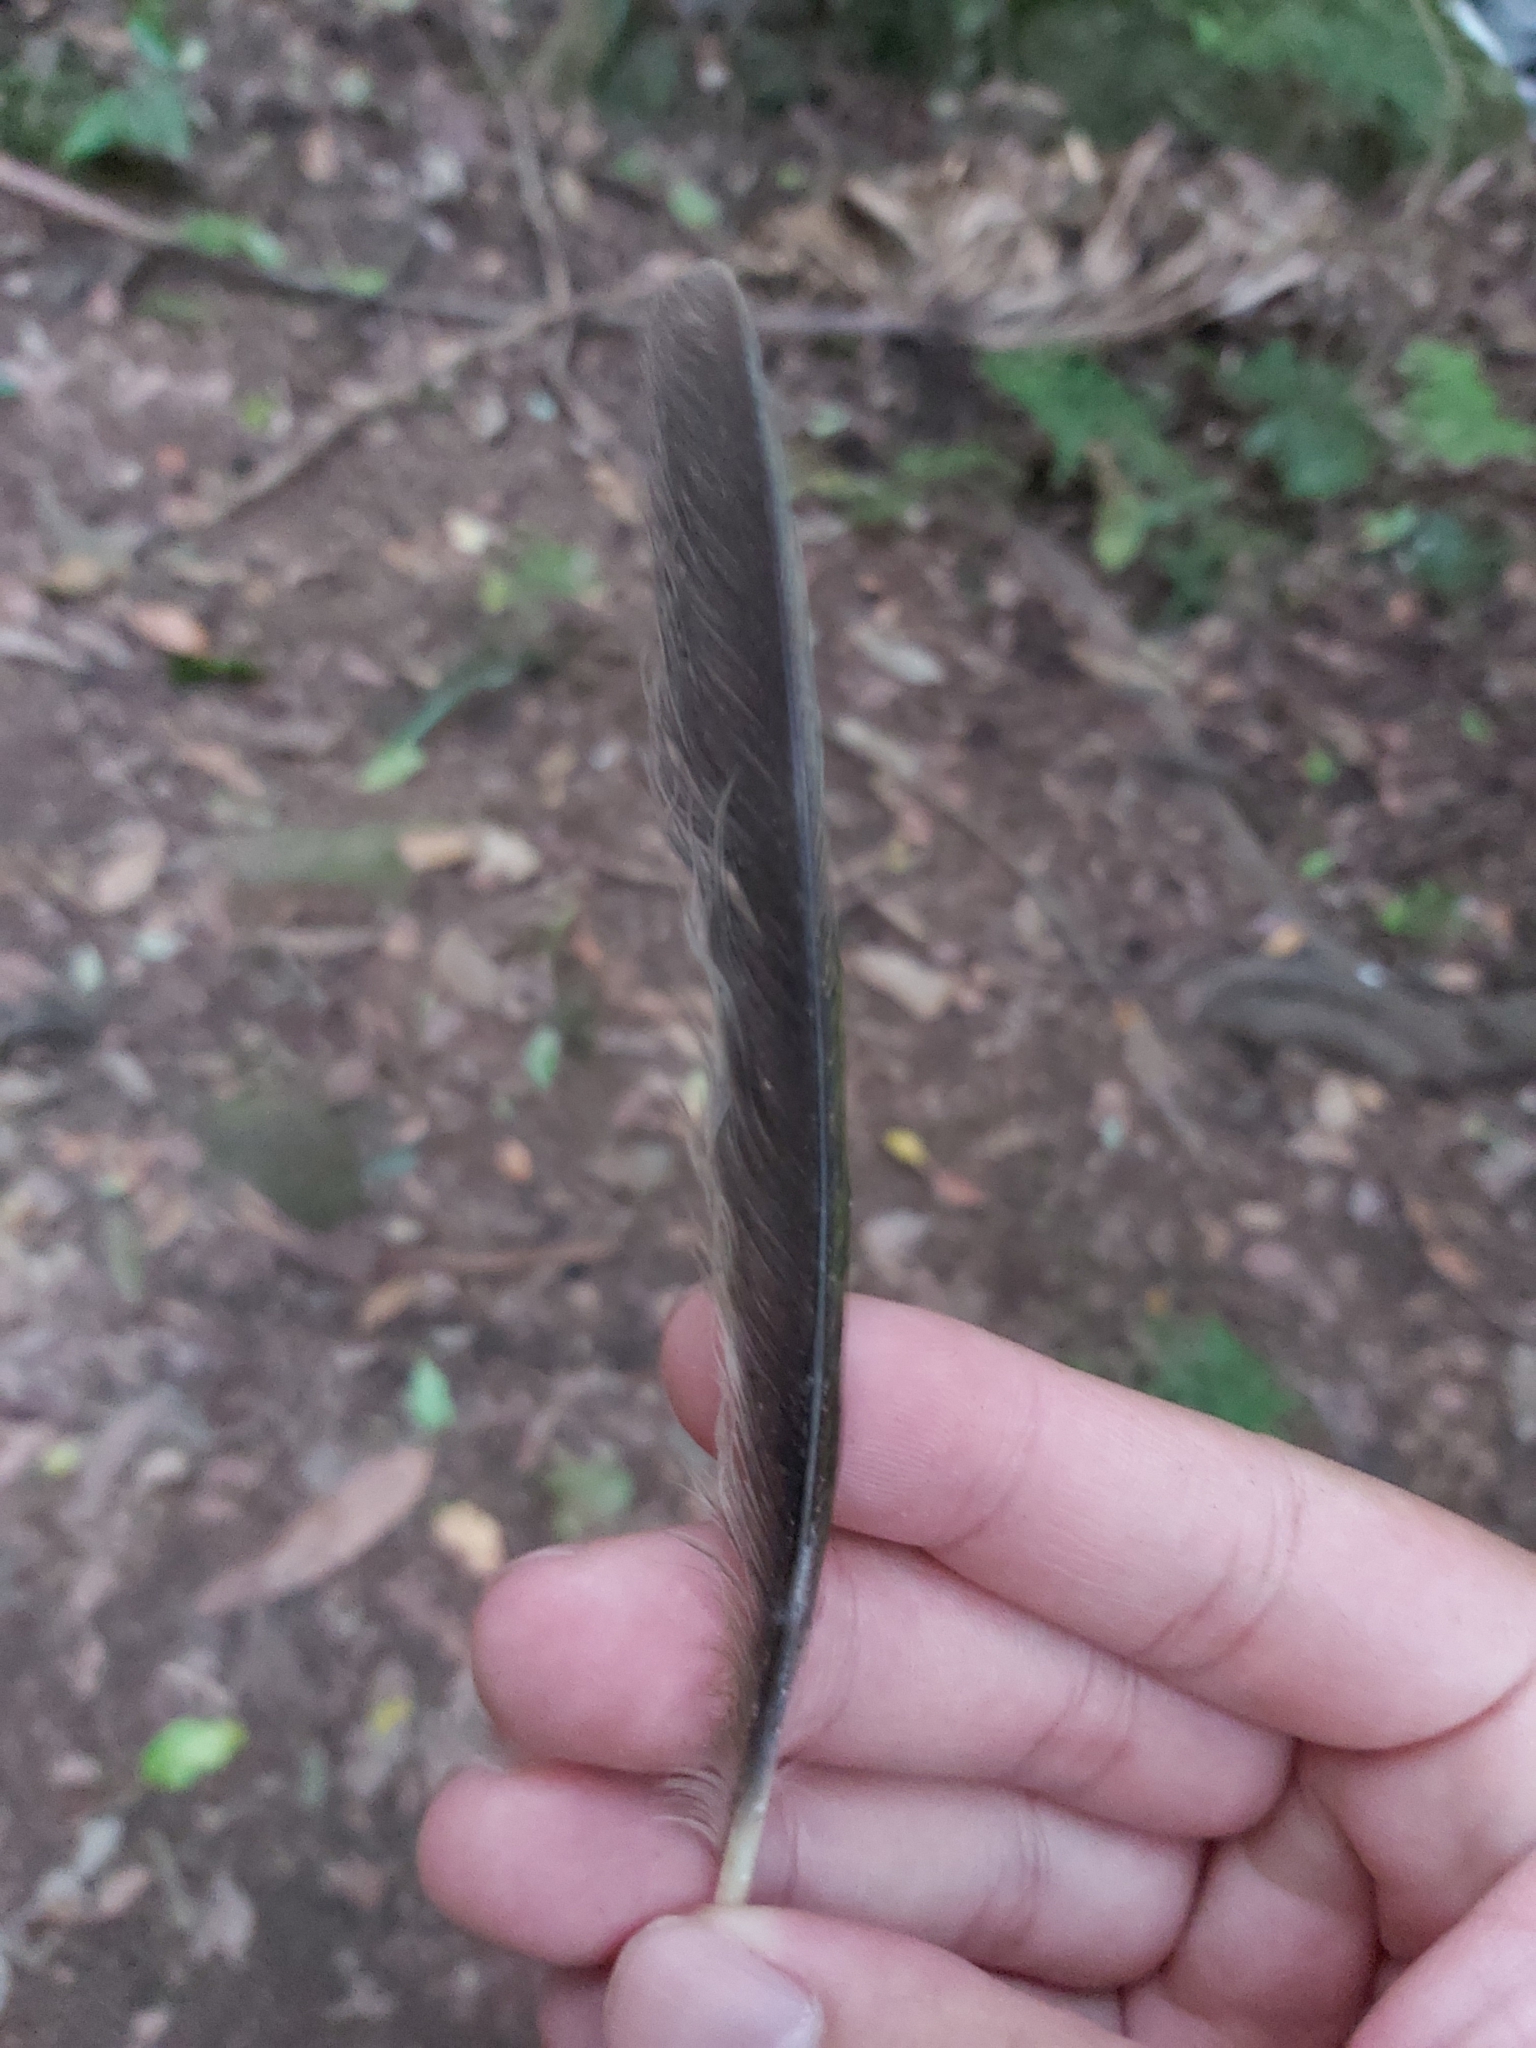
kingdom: Animalia
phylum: Chordata
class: Aves
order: Passeriformes
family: Ptilonorhynchidae
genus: Ailuroedus
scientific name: Ailuroedus crassirostris
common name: Green catbird
